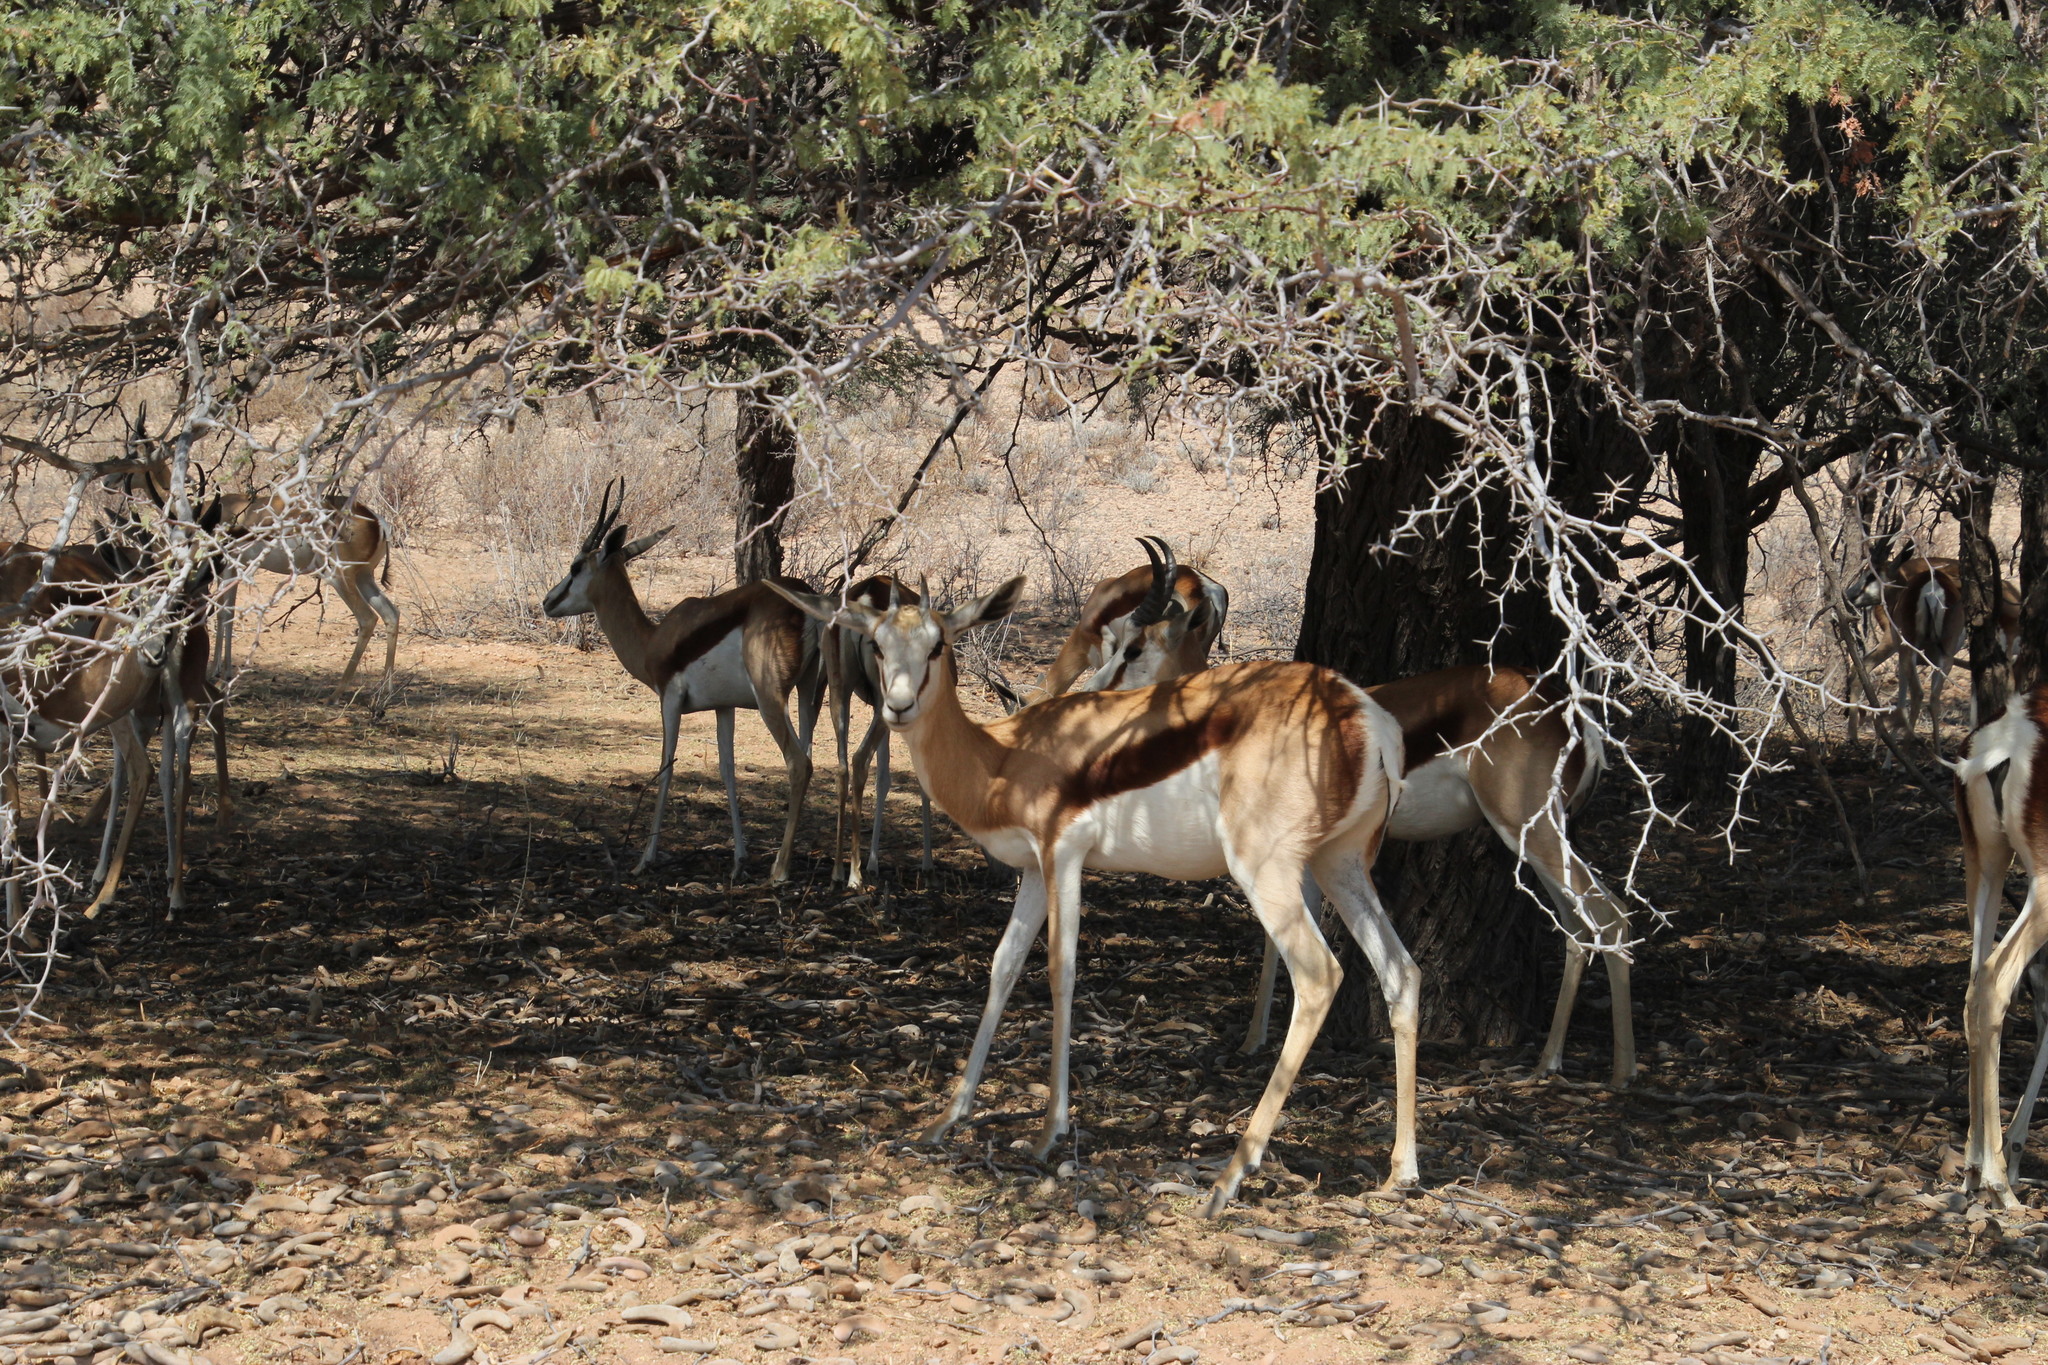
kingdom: Animalia
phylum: Chordata
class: Mammalia
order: Artiodactyla
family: Bovidae
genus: Antidorcas
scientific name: Antidorcas marsupialis
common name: Springbok
